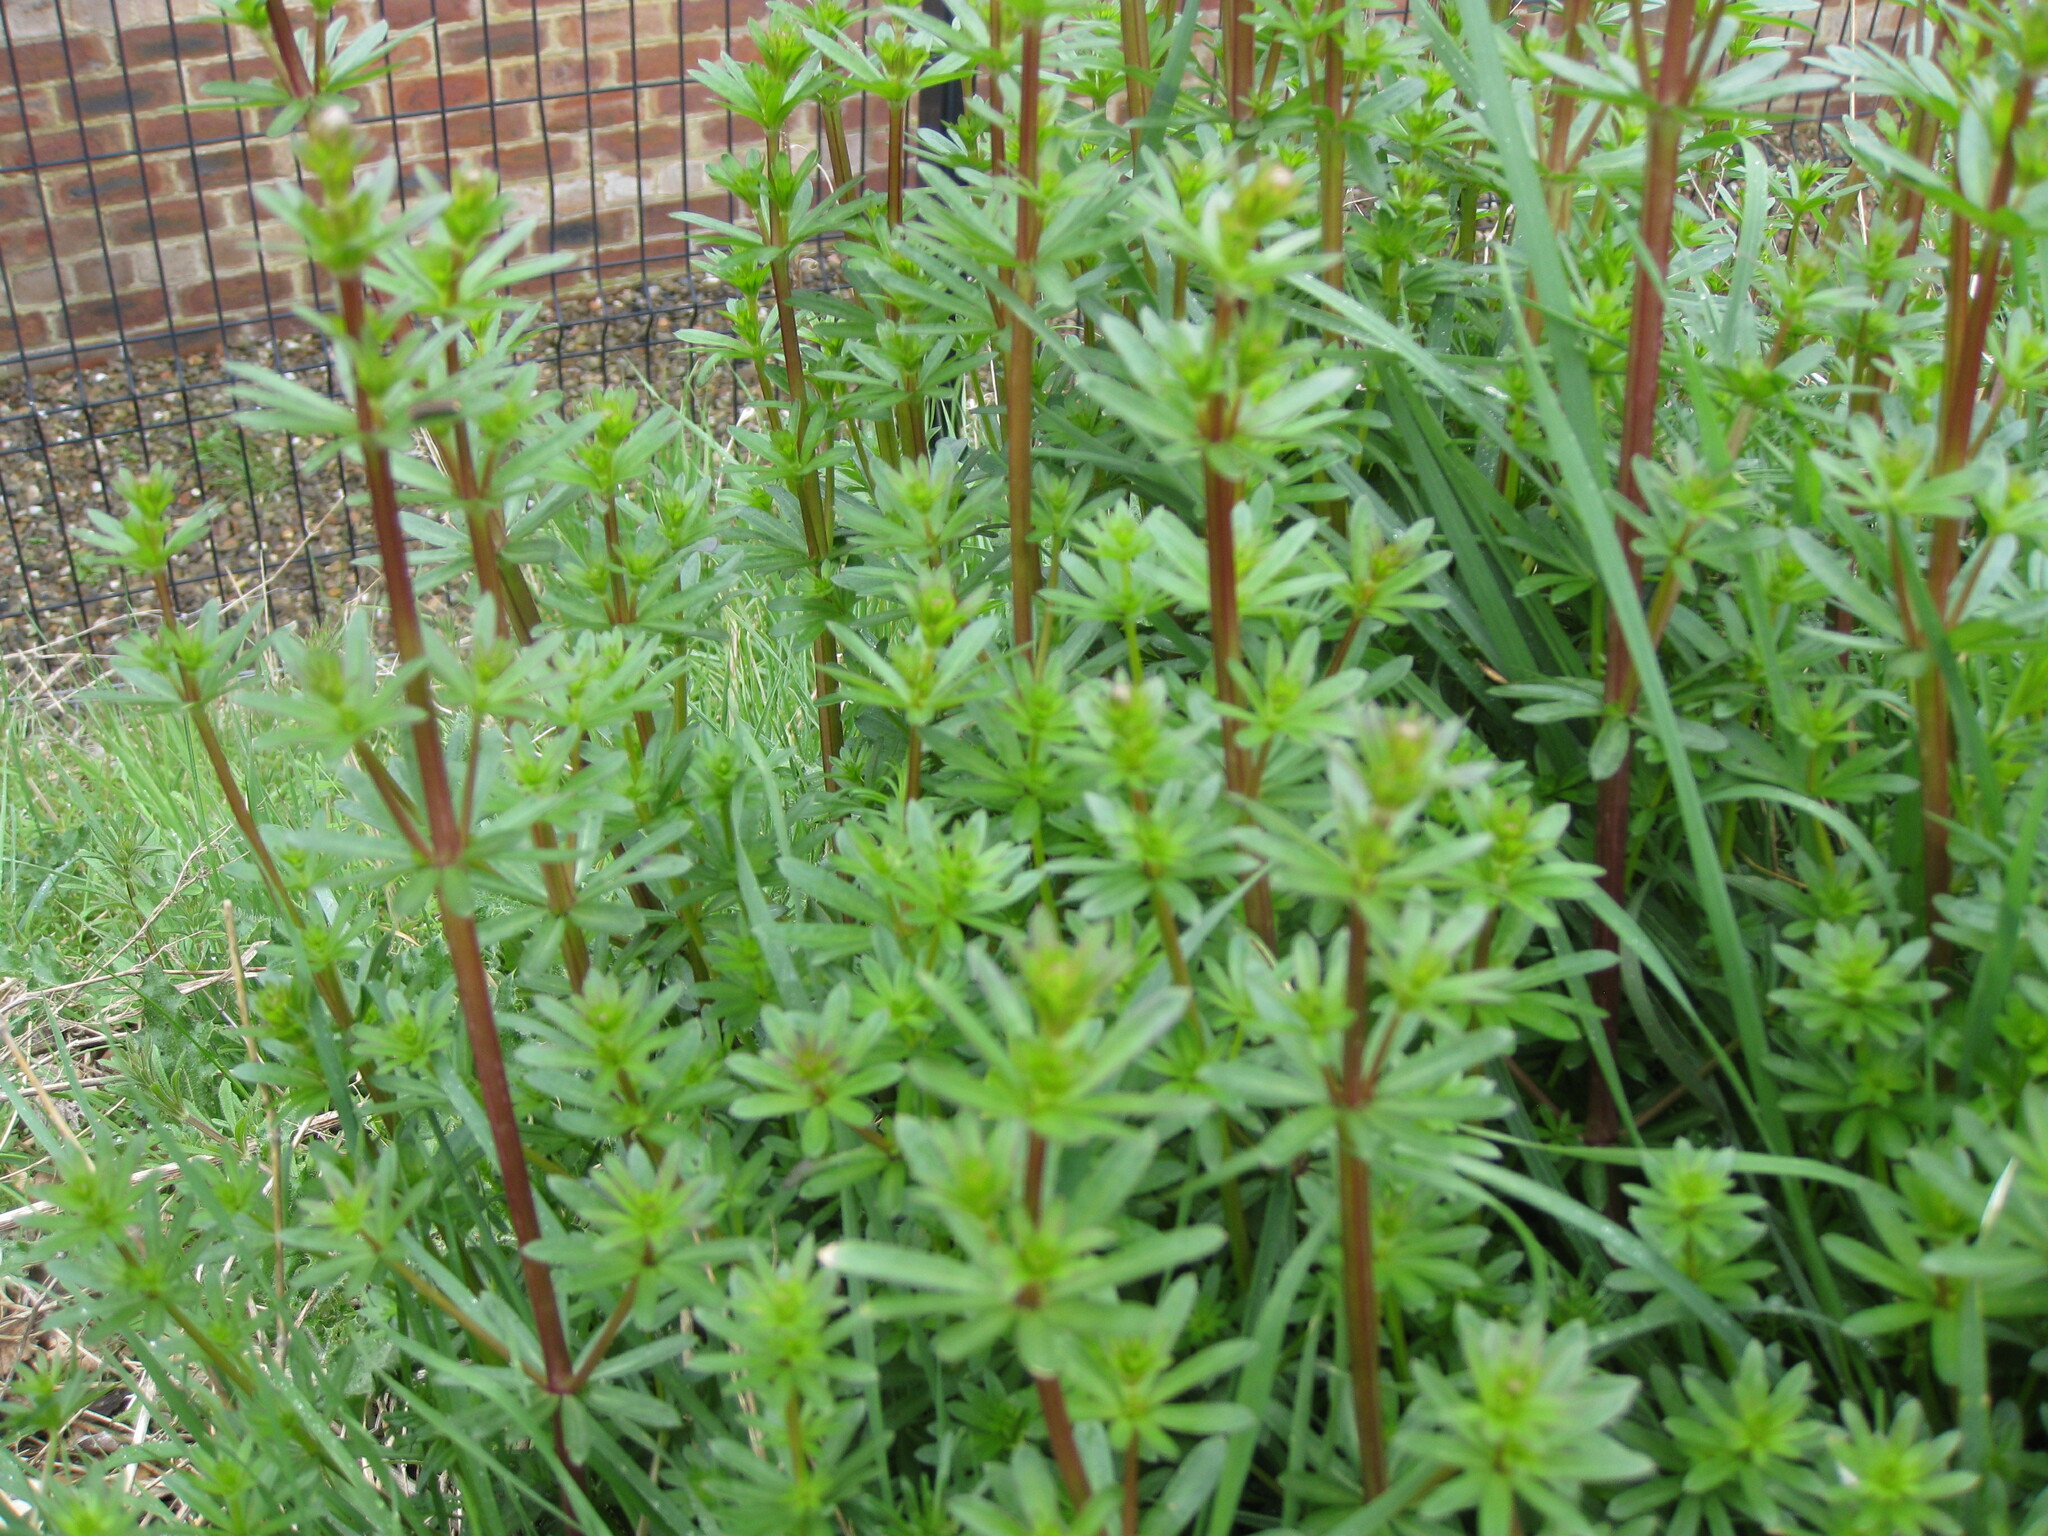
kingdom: Plantae
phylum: Tracheophyta
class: Magnoliopsida
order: Gentianales
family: Rubiaceae
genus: Galium
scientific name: Galium mollugo
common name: Hedge bedstraw
